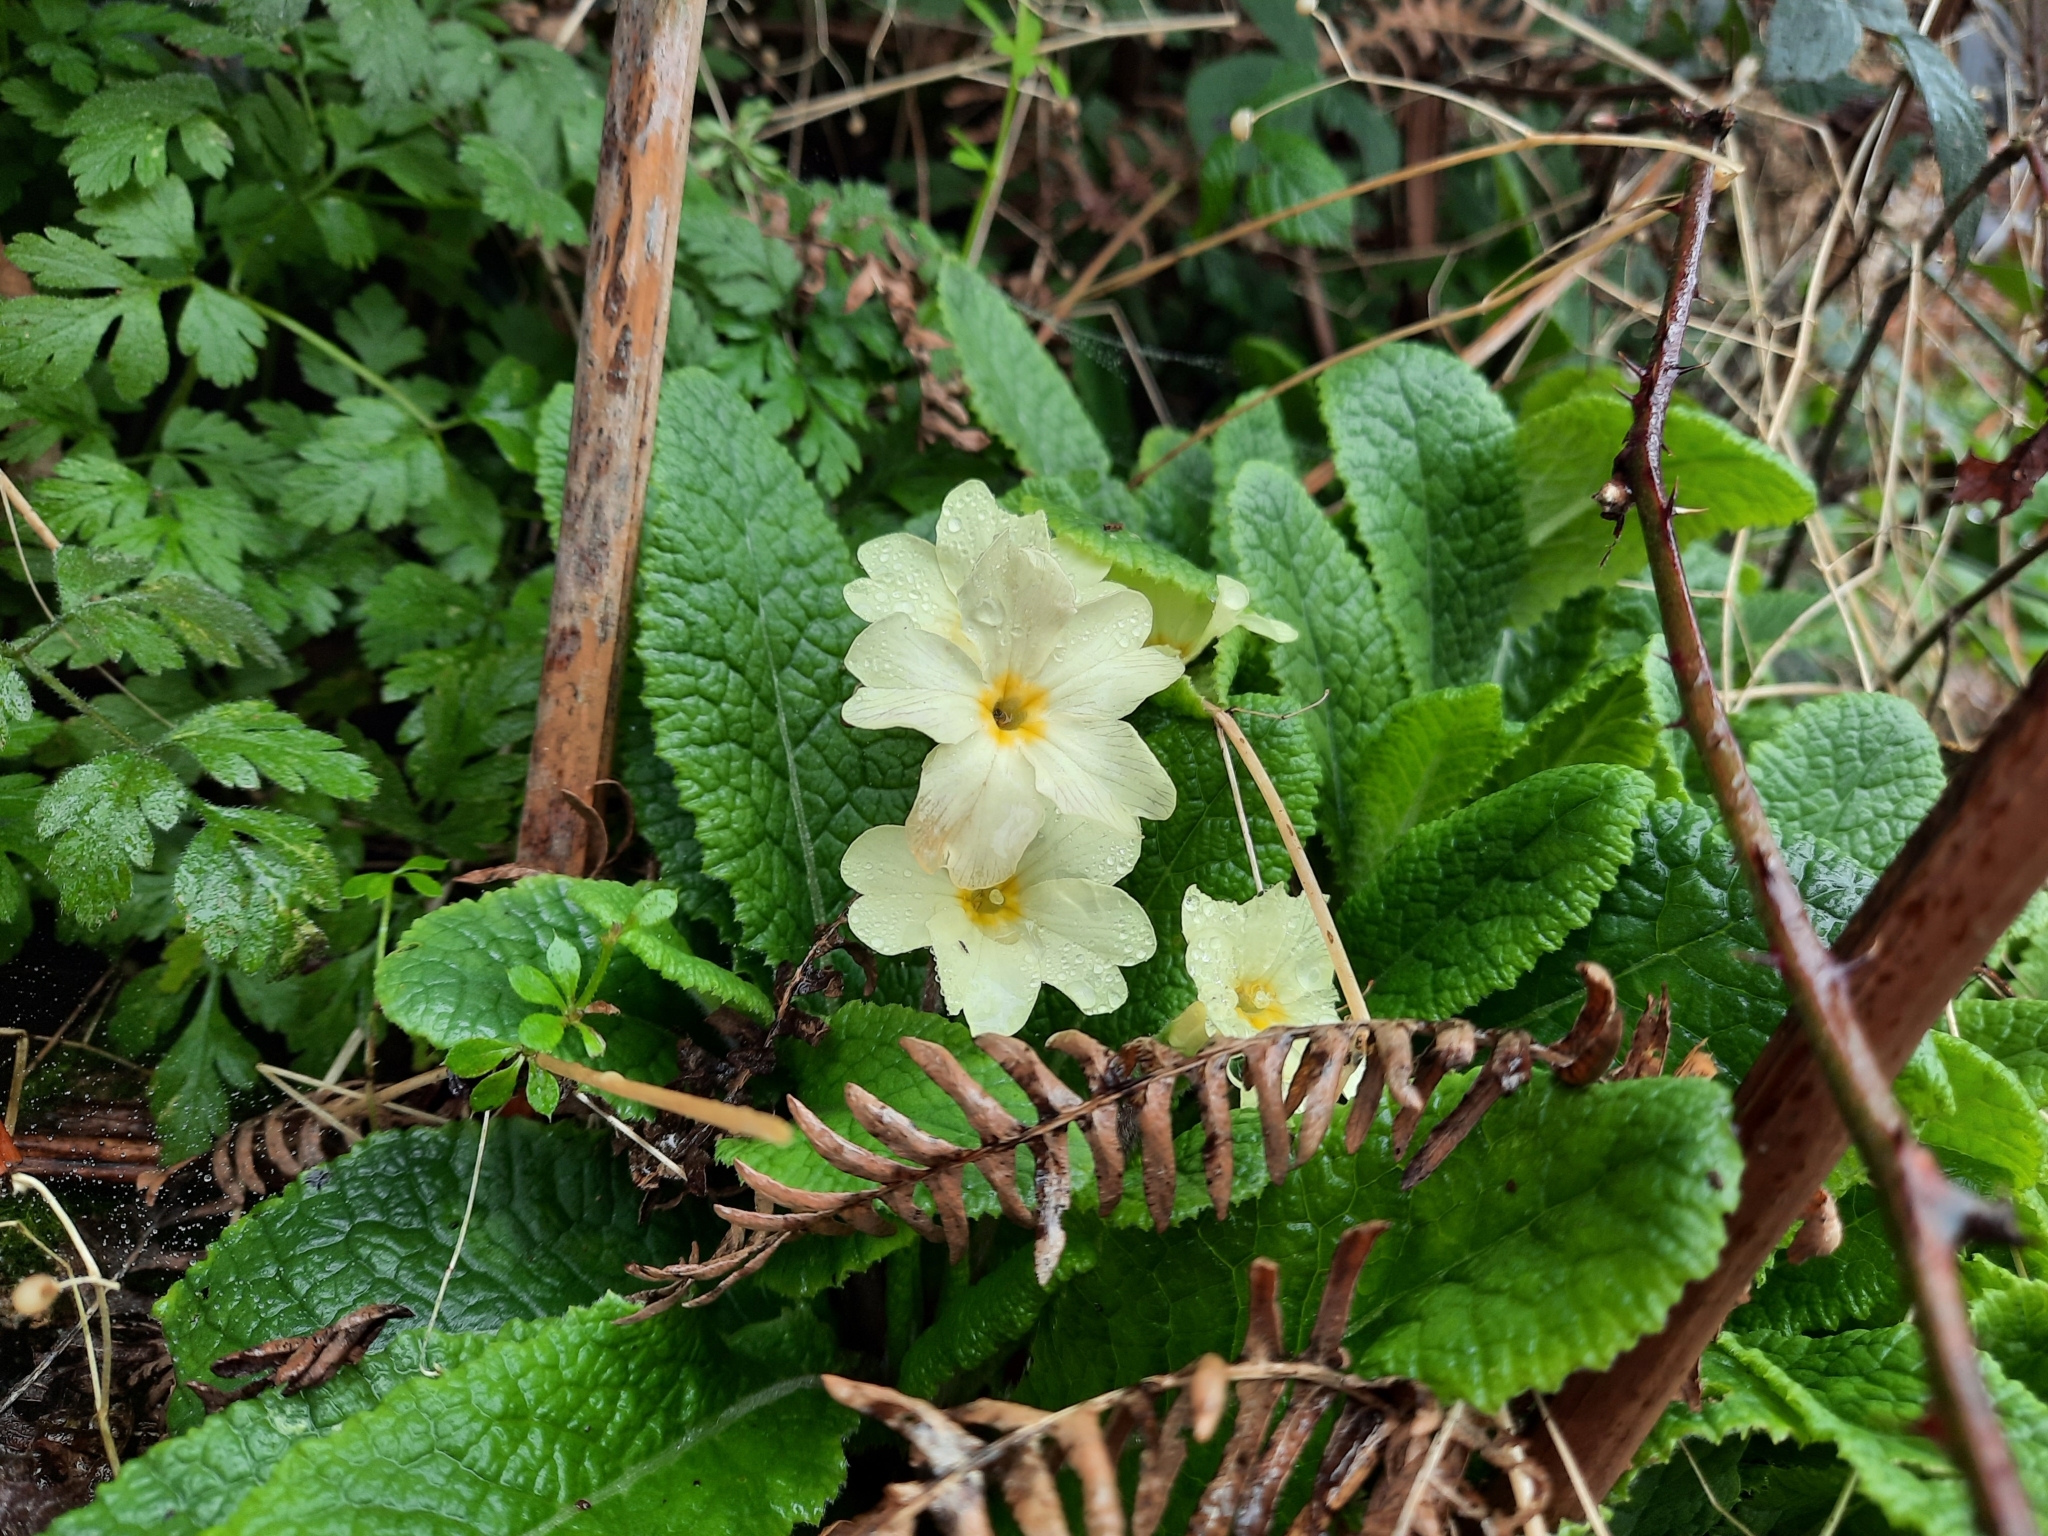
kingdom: Plantae
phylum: Tracheophyta
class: Magnoliopsida
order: Ericales
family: Primulaceae
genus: Primula
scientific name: Primula vulgaris
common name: Primrose
